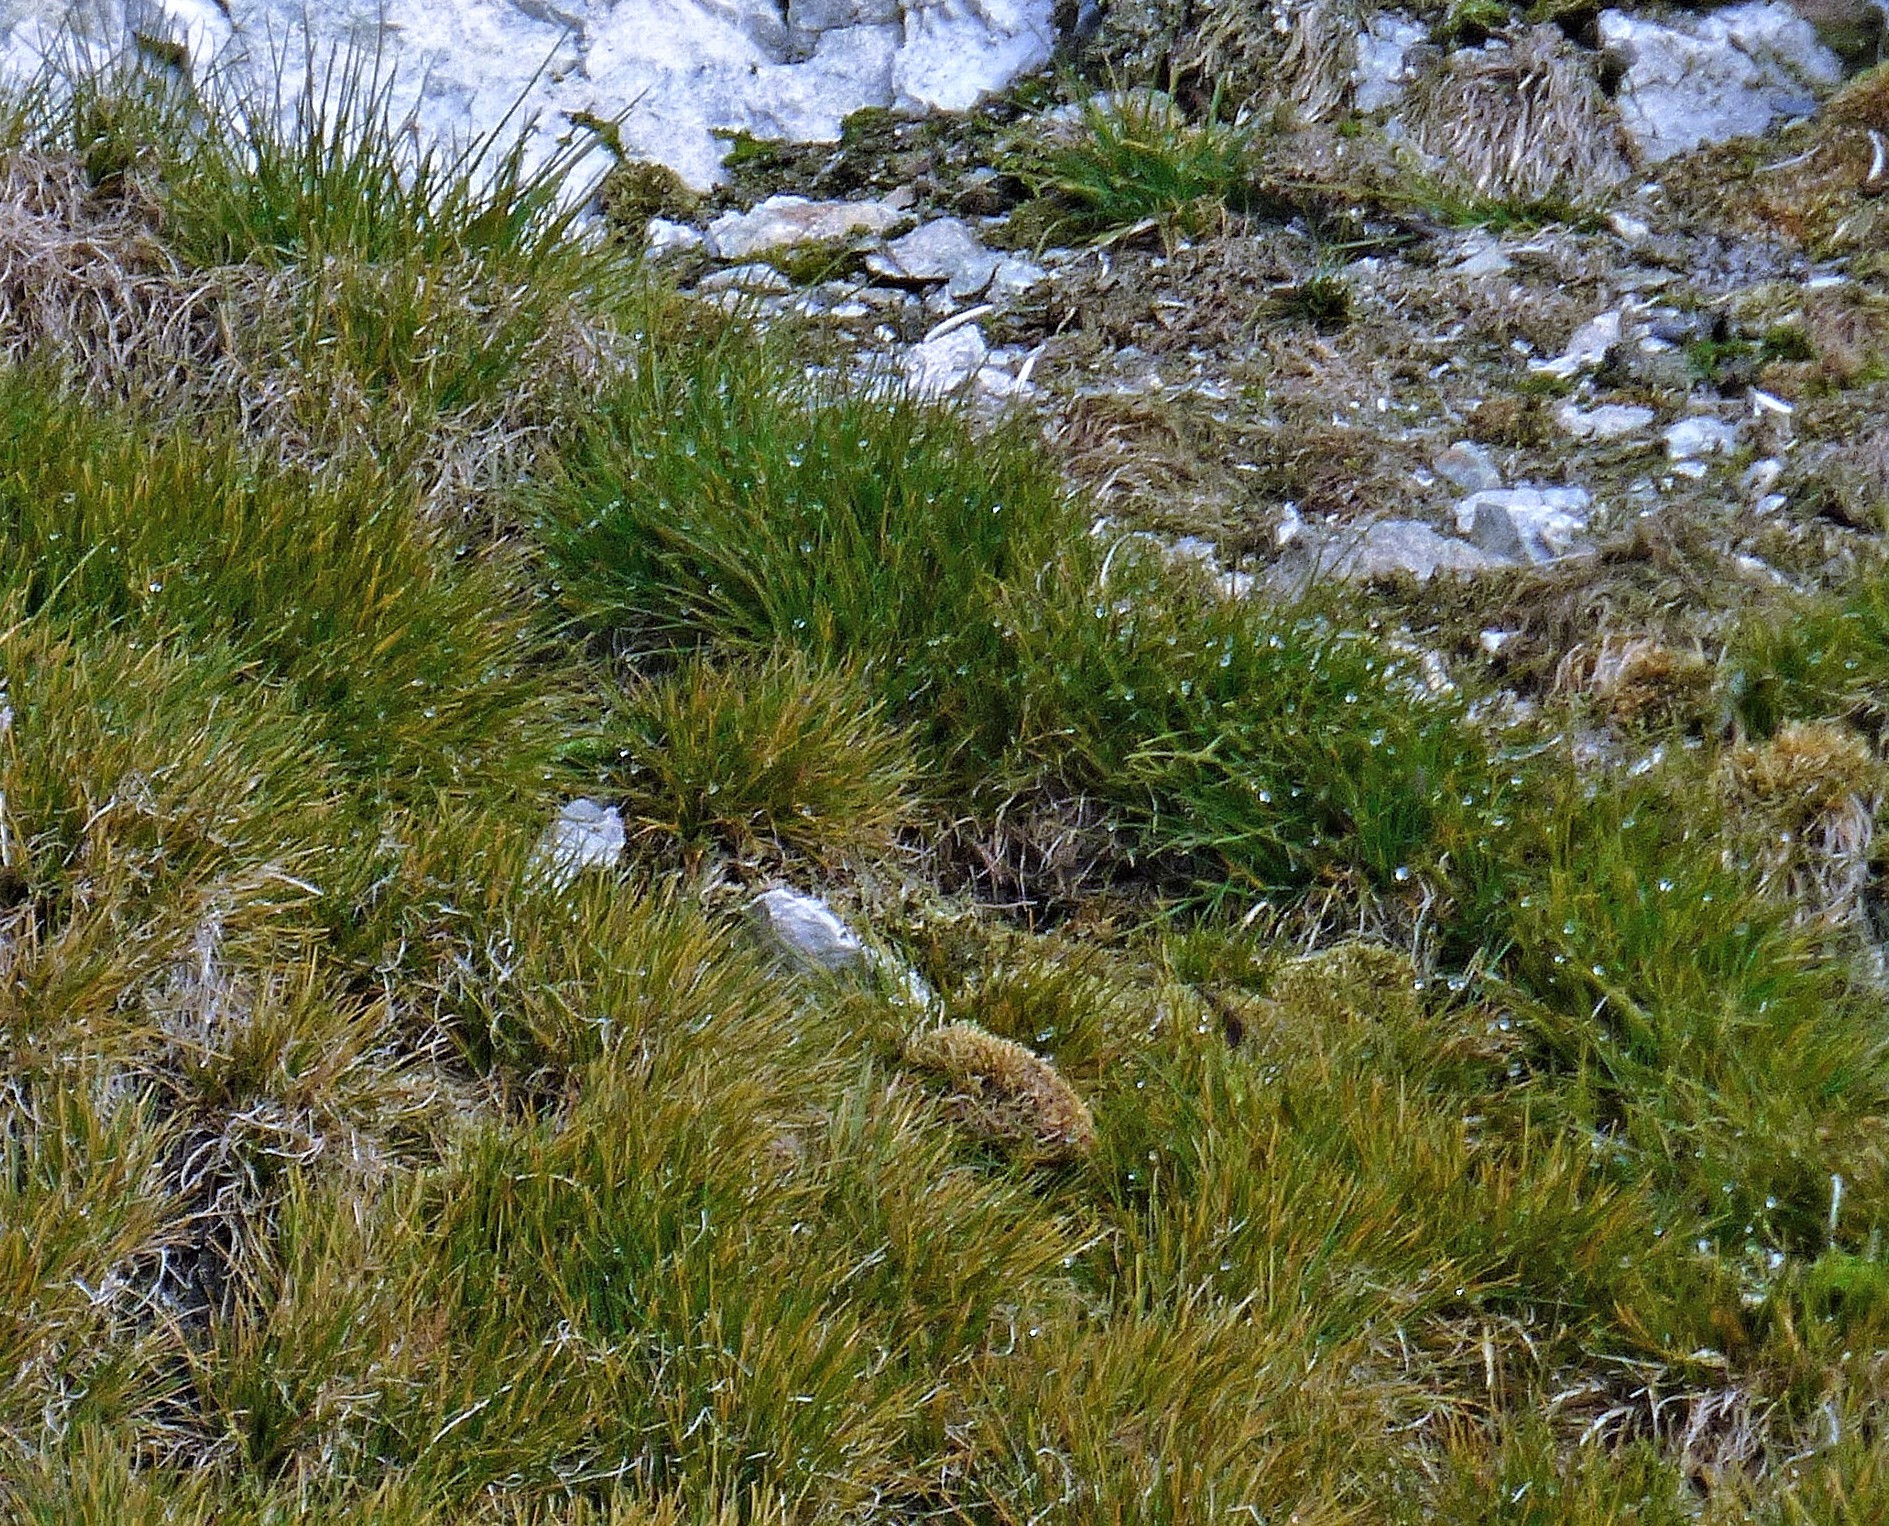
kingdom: Plantae
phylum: Tracheophyta
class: Liliopsida
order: Poales
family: Poaceae
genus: Deschampsia
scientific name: Deschampsia antarctica
